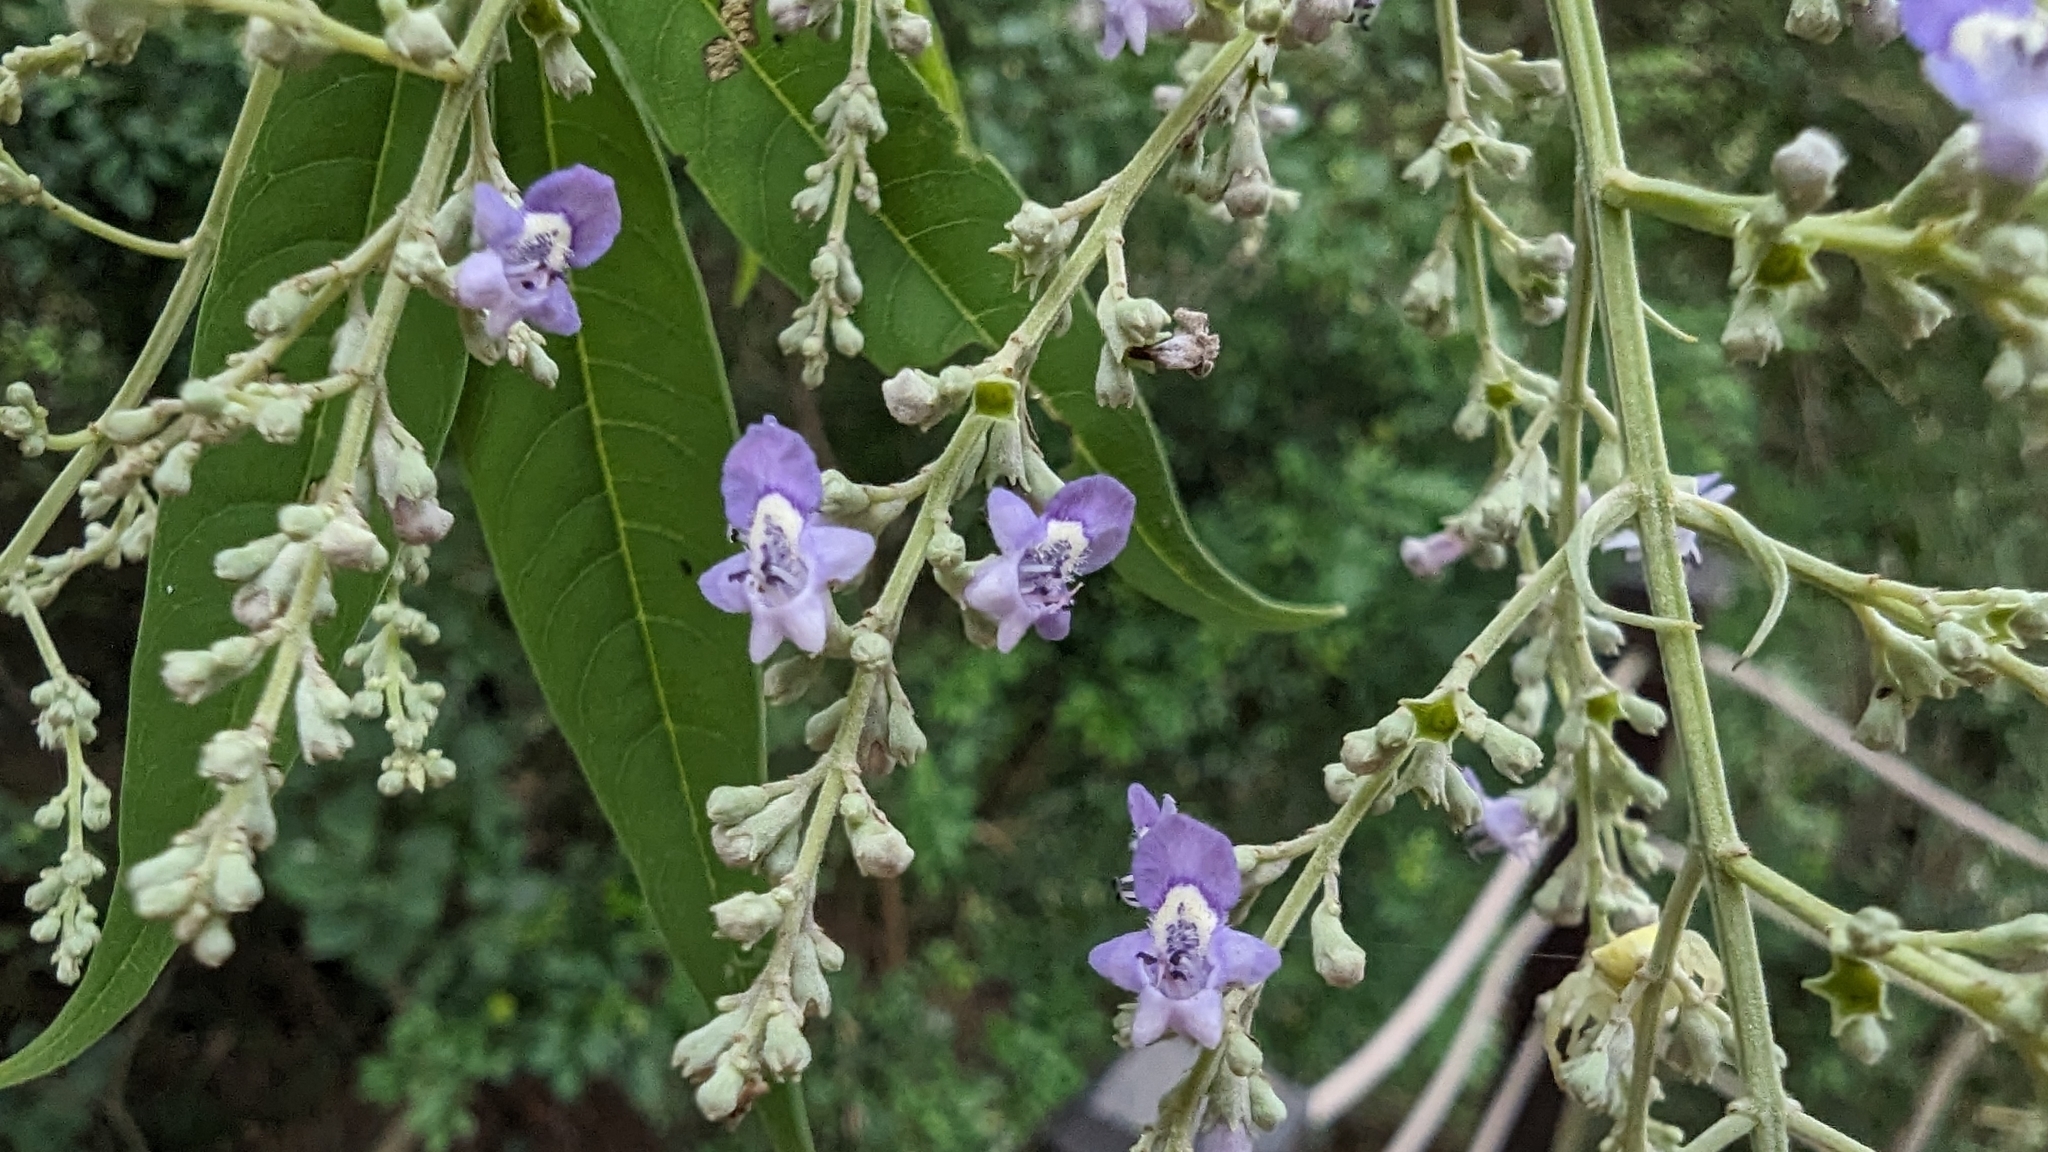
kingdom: Plantae
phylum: Tracheophyta
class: Magnoliopsida
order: Lamiales
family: Lamiaceae
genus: Vitex
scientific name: Vitex negundo
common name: Chinese chastetree
